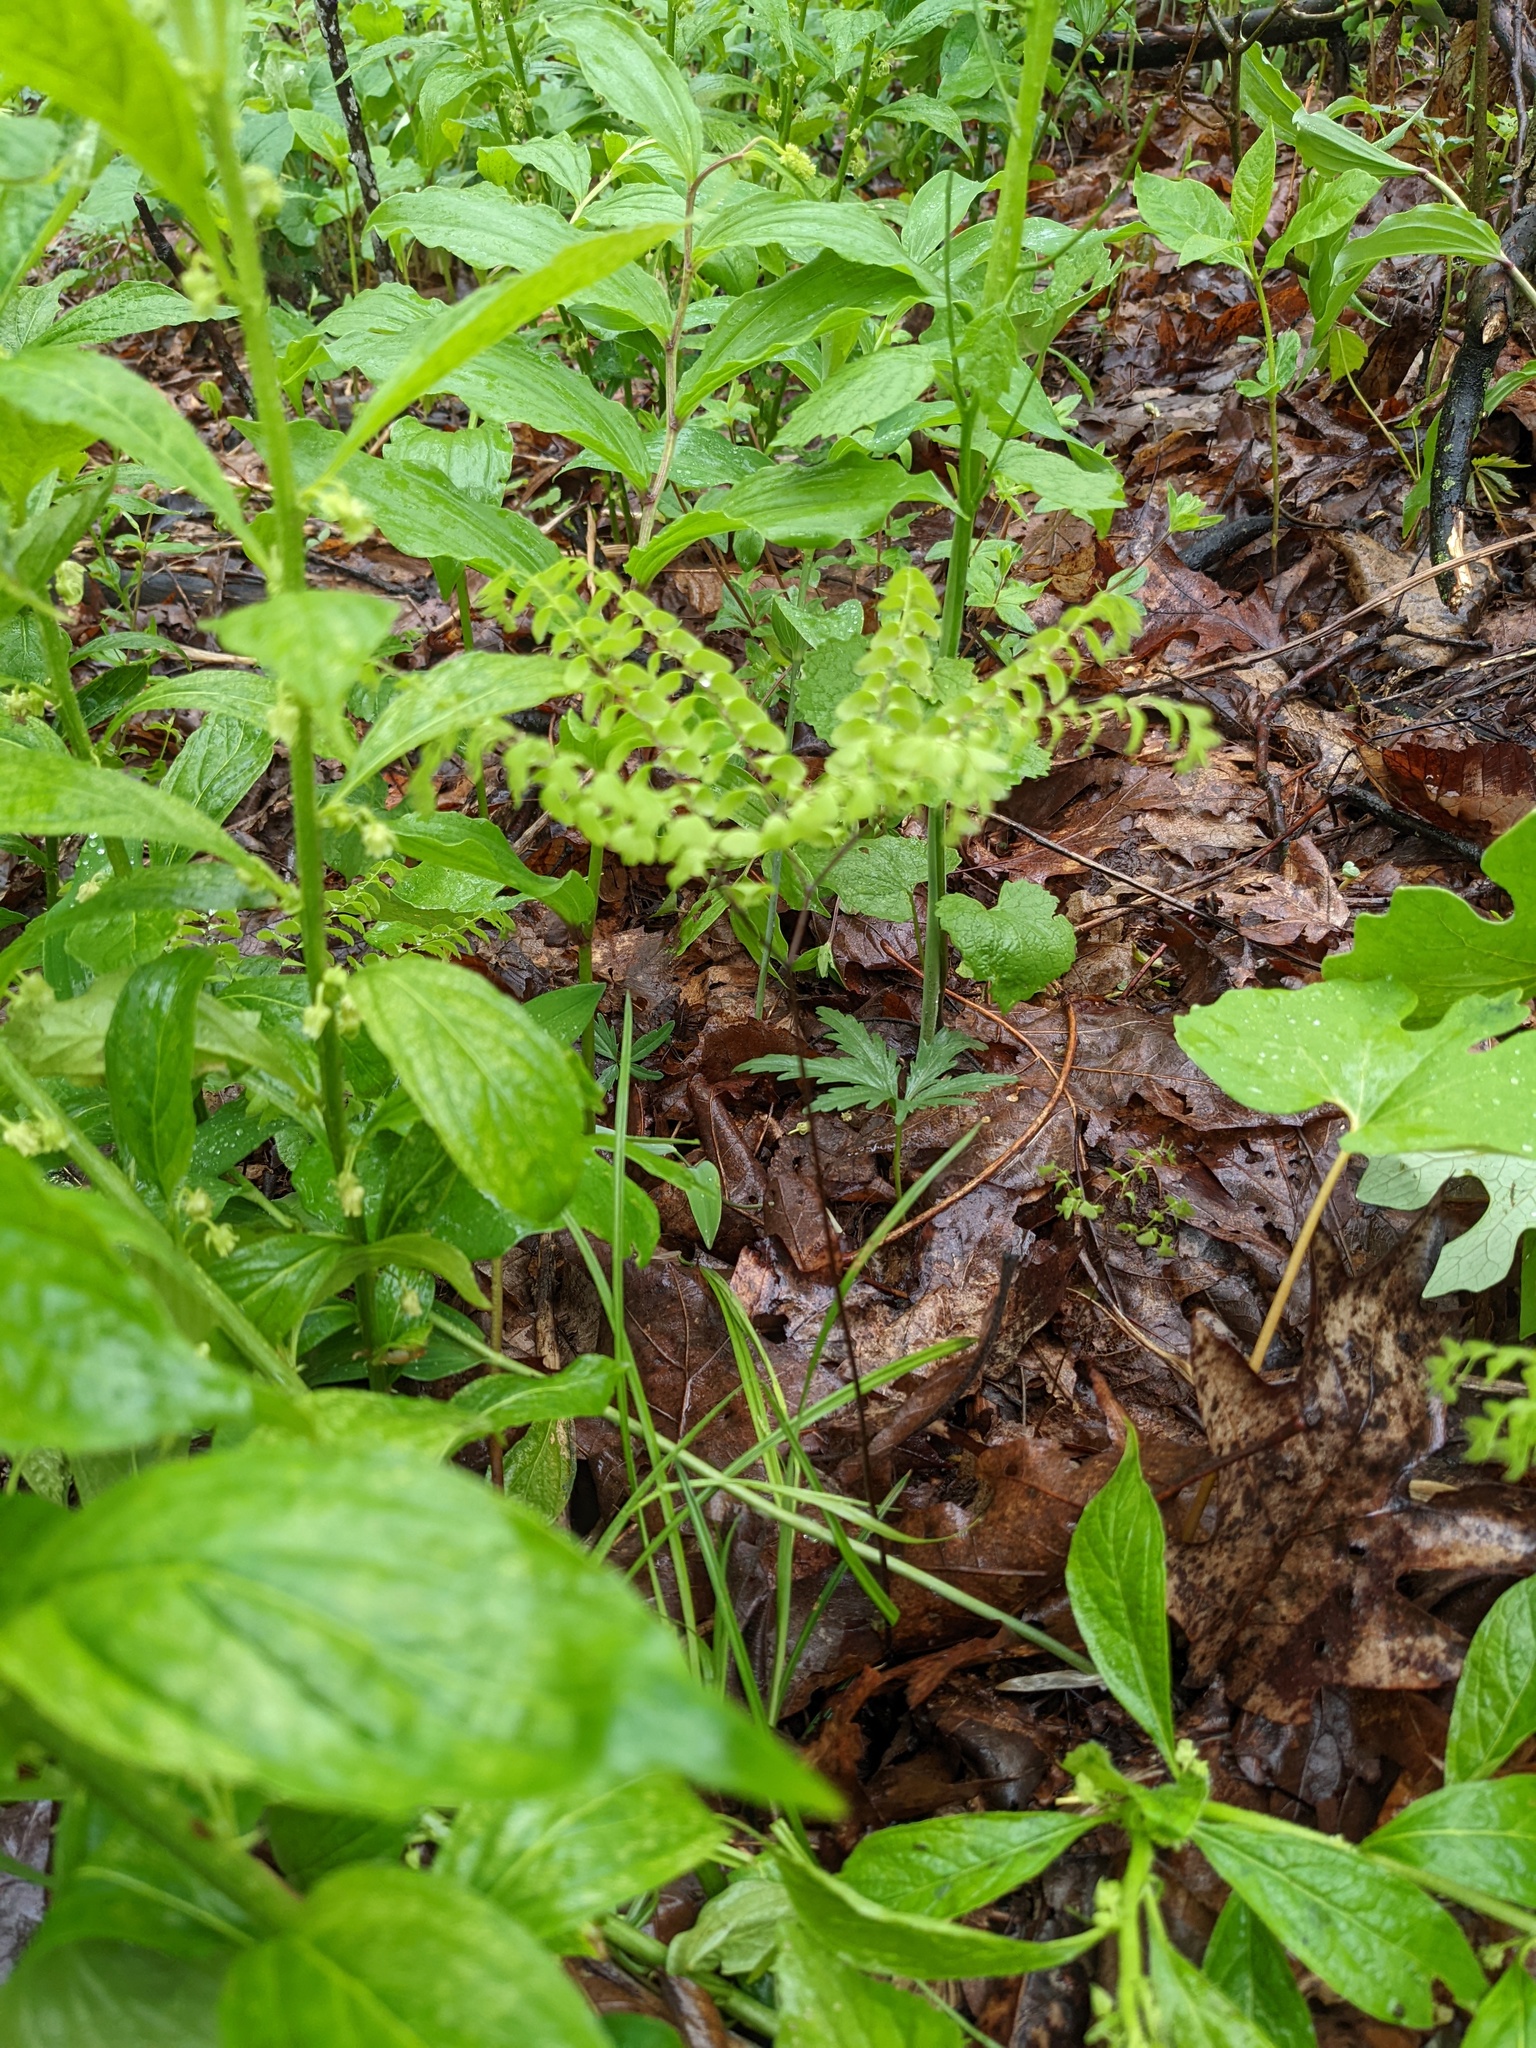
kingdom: Plantae
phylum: Tracheophyta
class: Polypodiopsida
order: Polypodiales
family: Pteridaceae
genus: Adiantum
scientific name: Adiantum pedatum
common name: Five-finger fern
